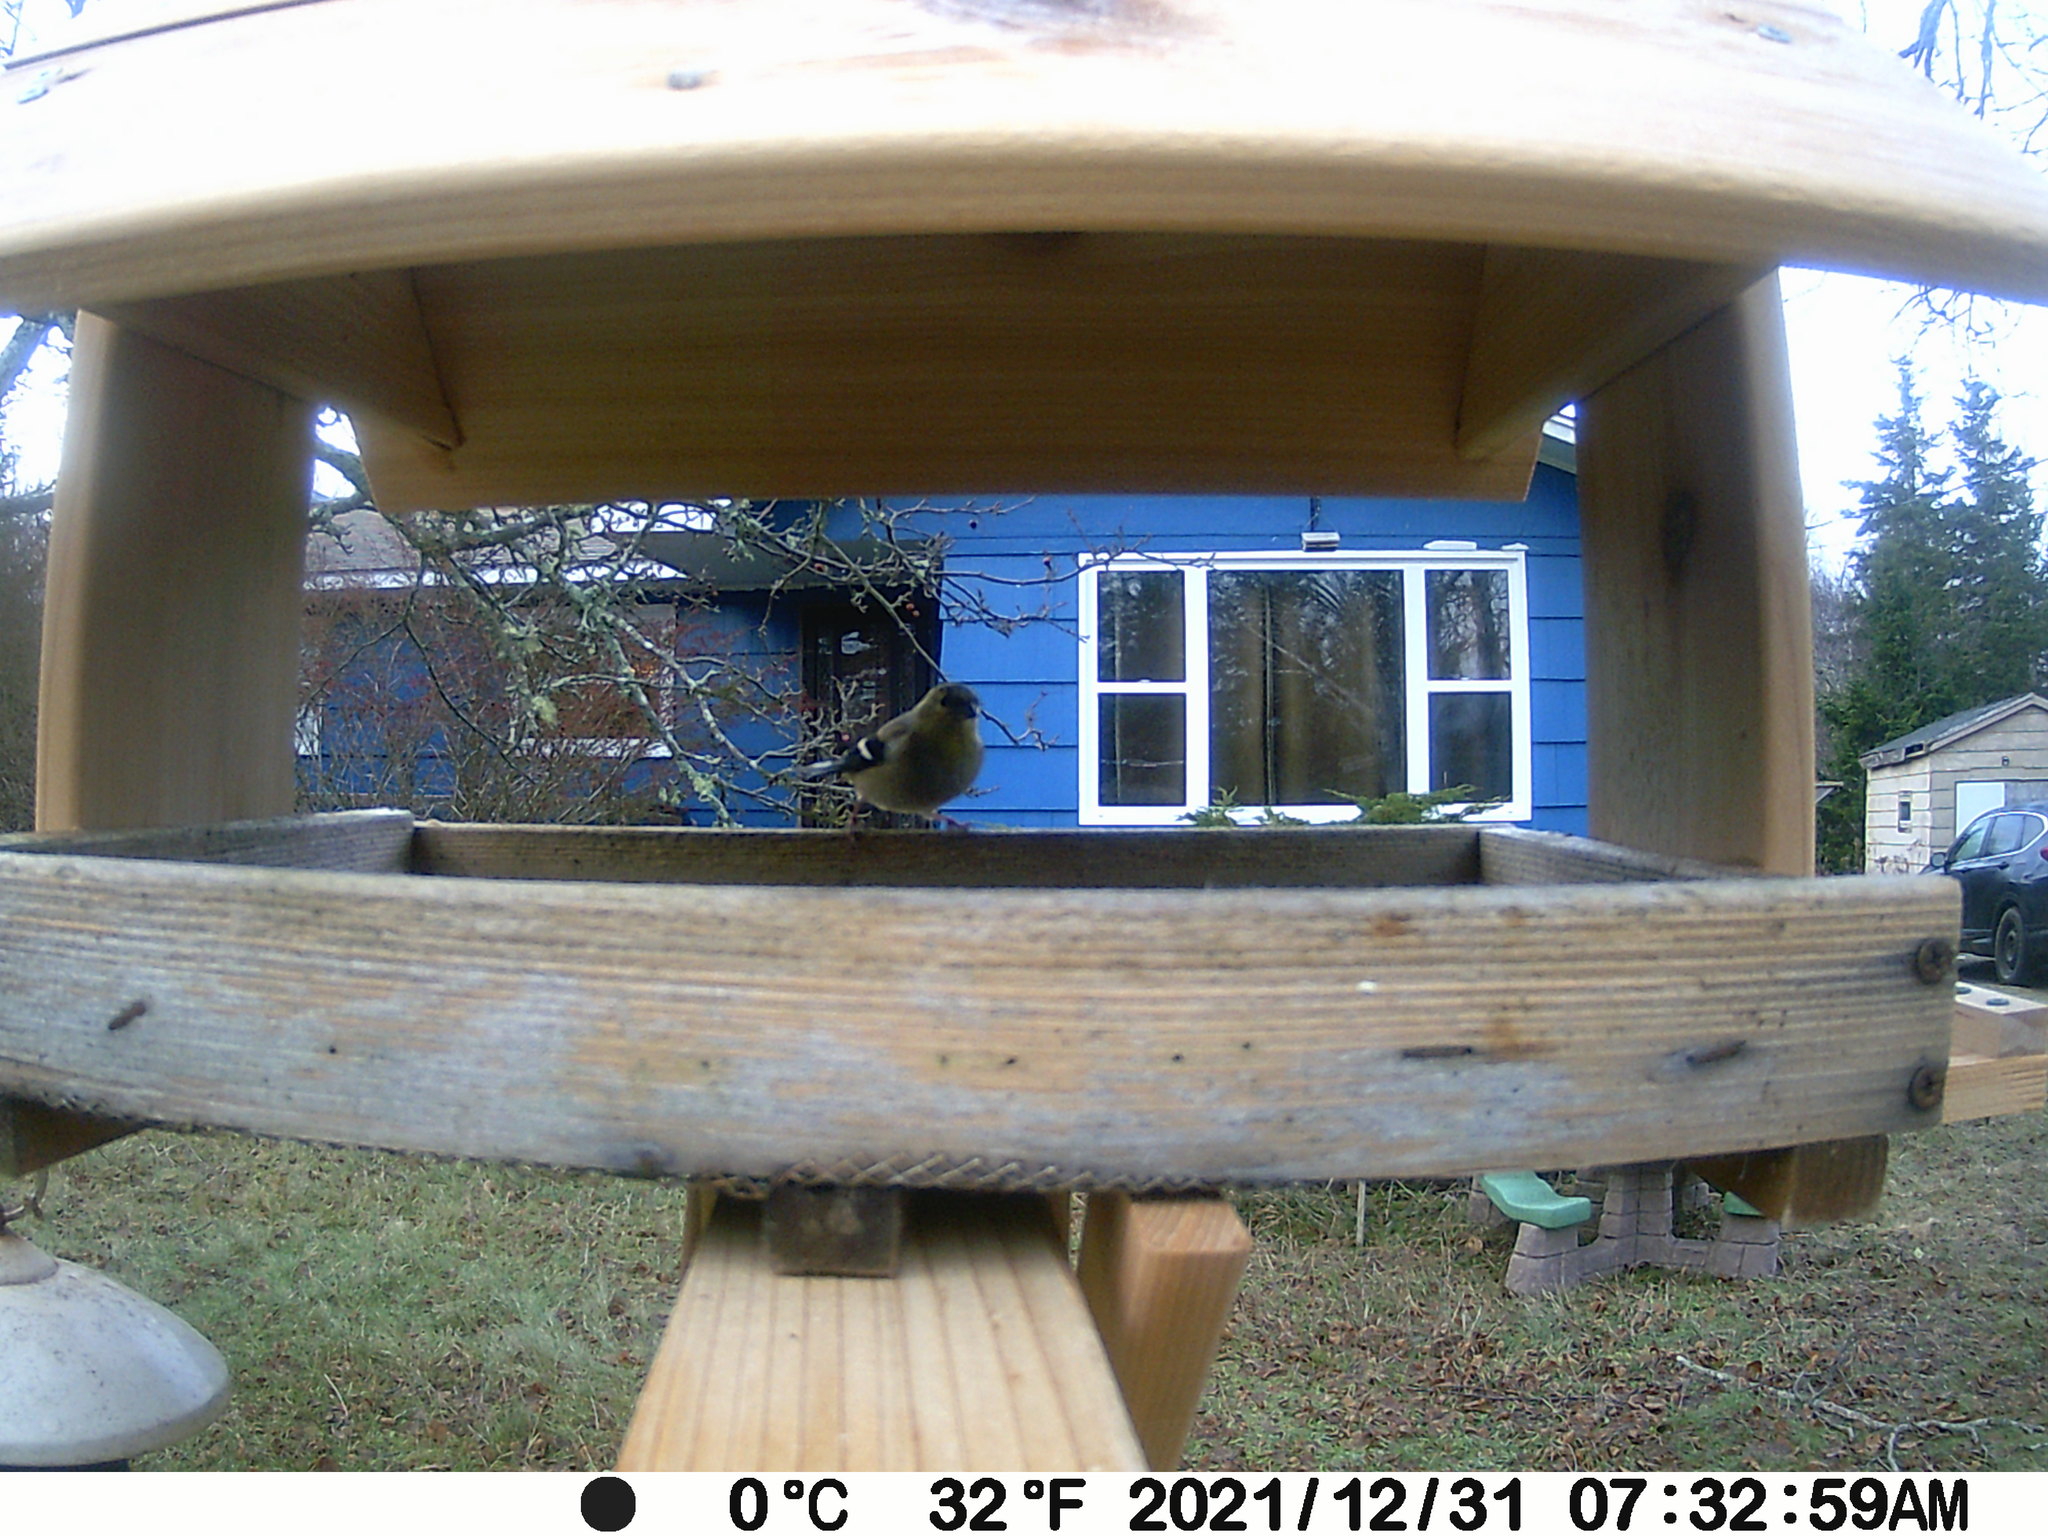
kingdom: Animalia
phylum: Chordata
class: Aves
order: Passeriformes
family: Fringillidae
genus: Spinus
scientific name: Spinus tristis
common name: American goldfinch
